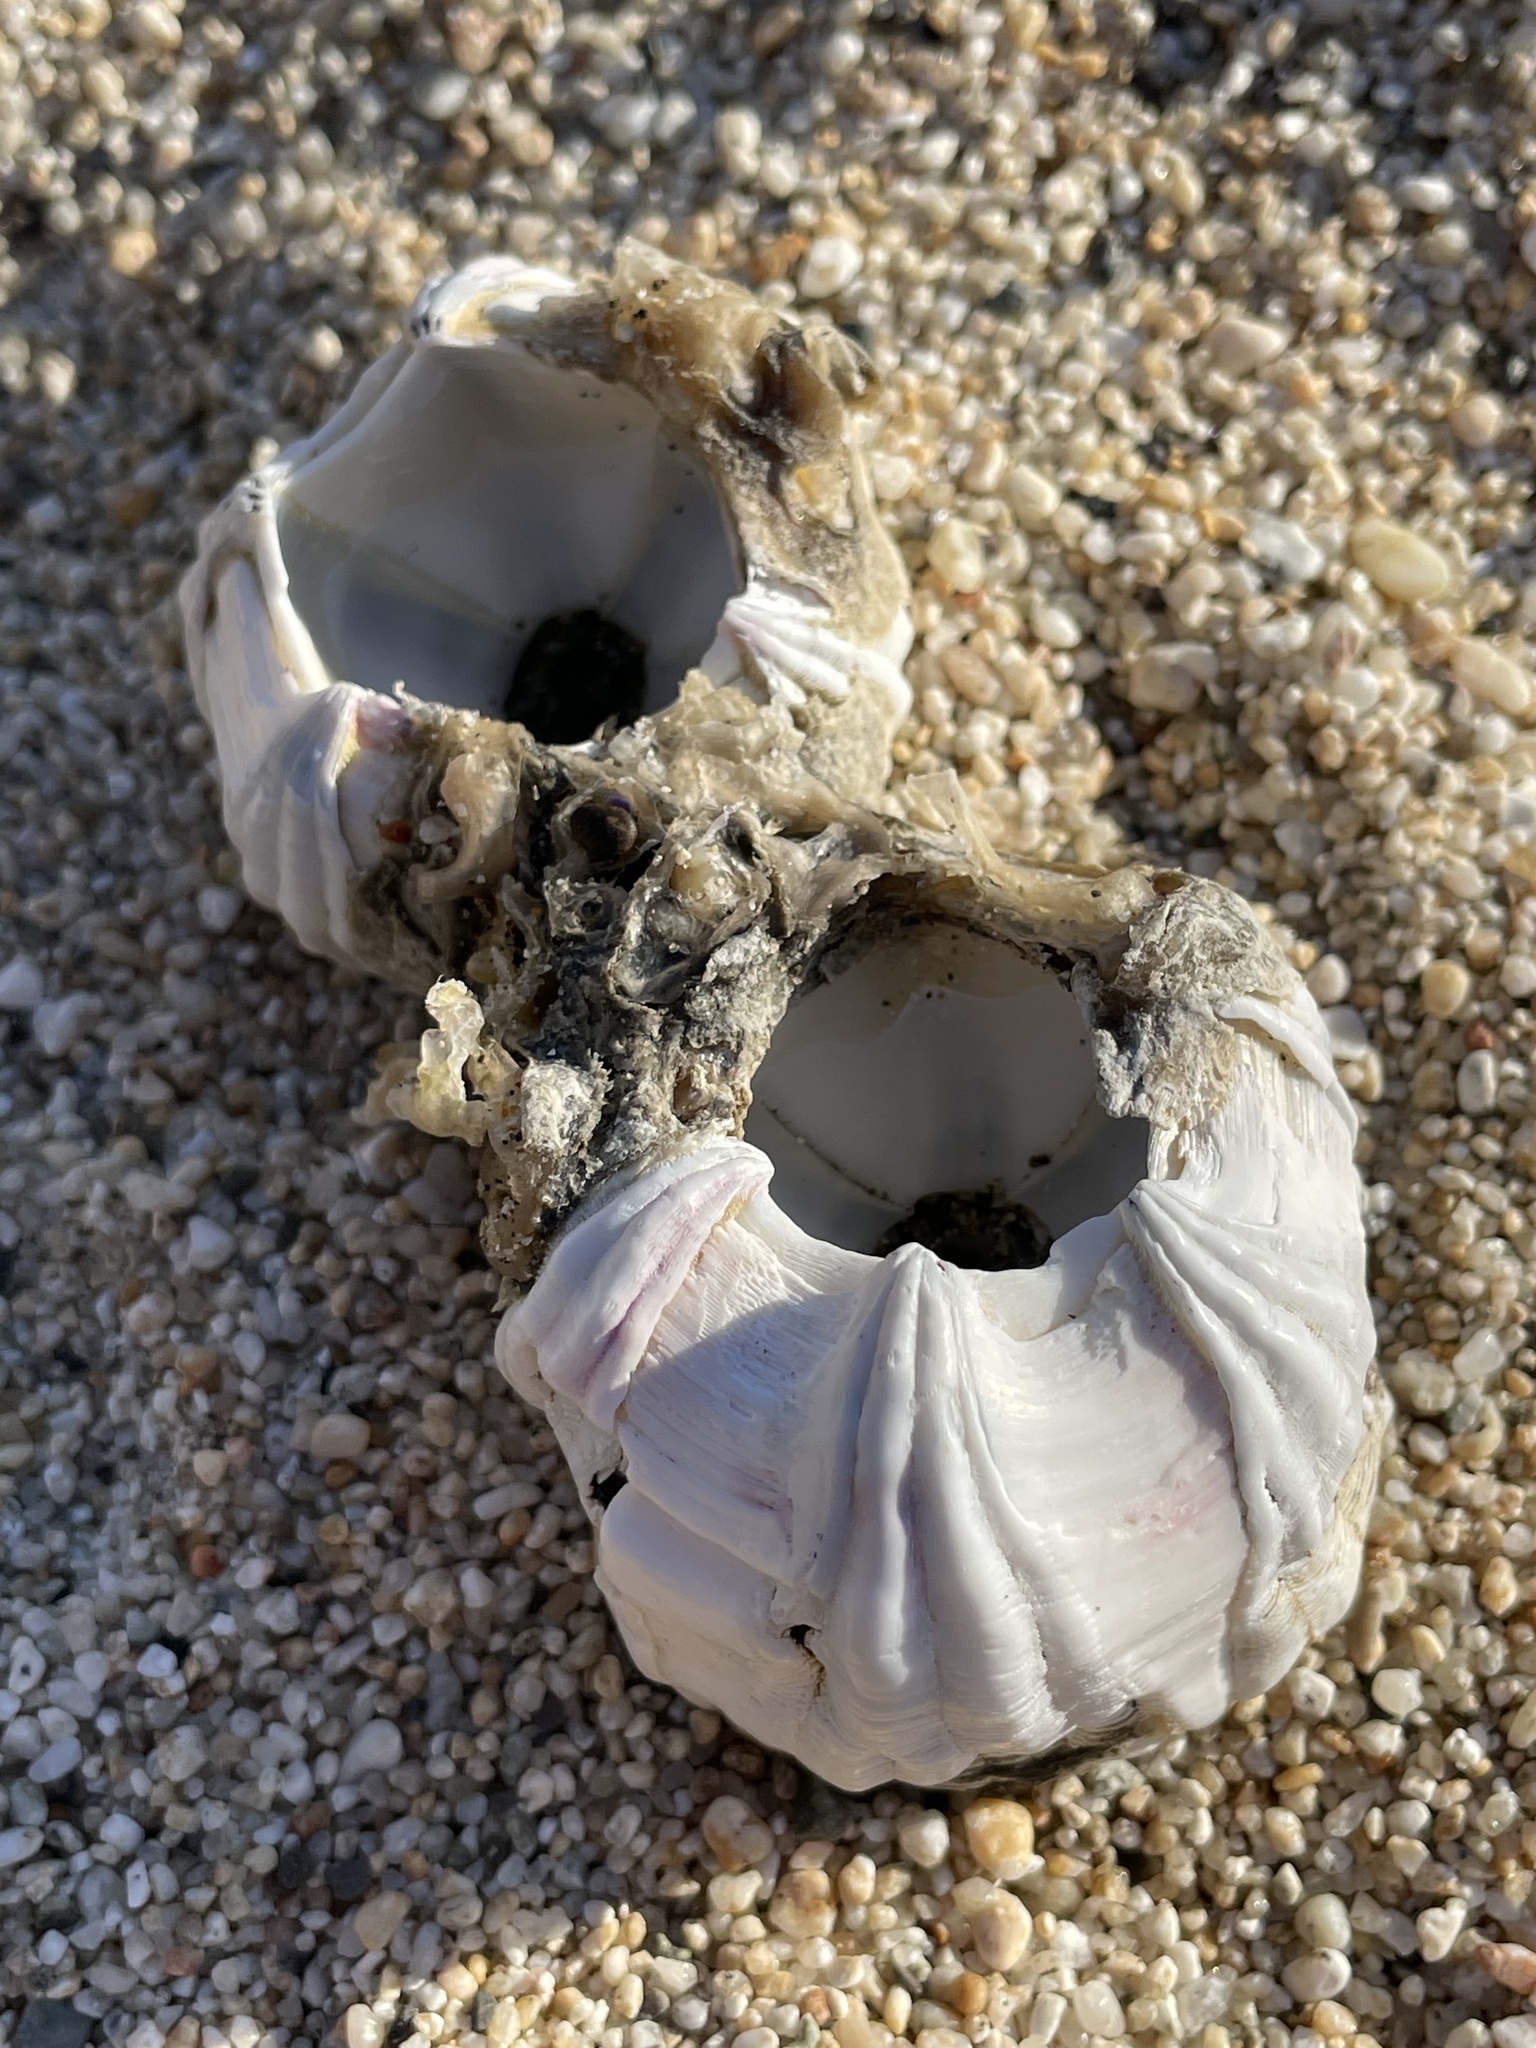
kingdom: Animalia
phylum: Arthropoda
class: Maxillopoda
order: Sessilia
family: Coronulidae
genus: Coronula
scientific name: Coronula diadema
